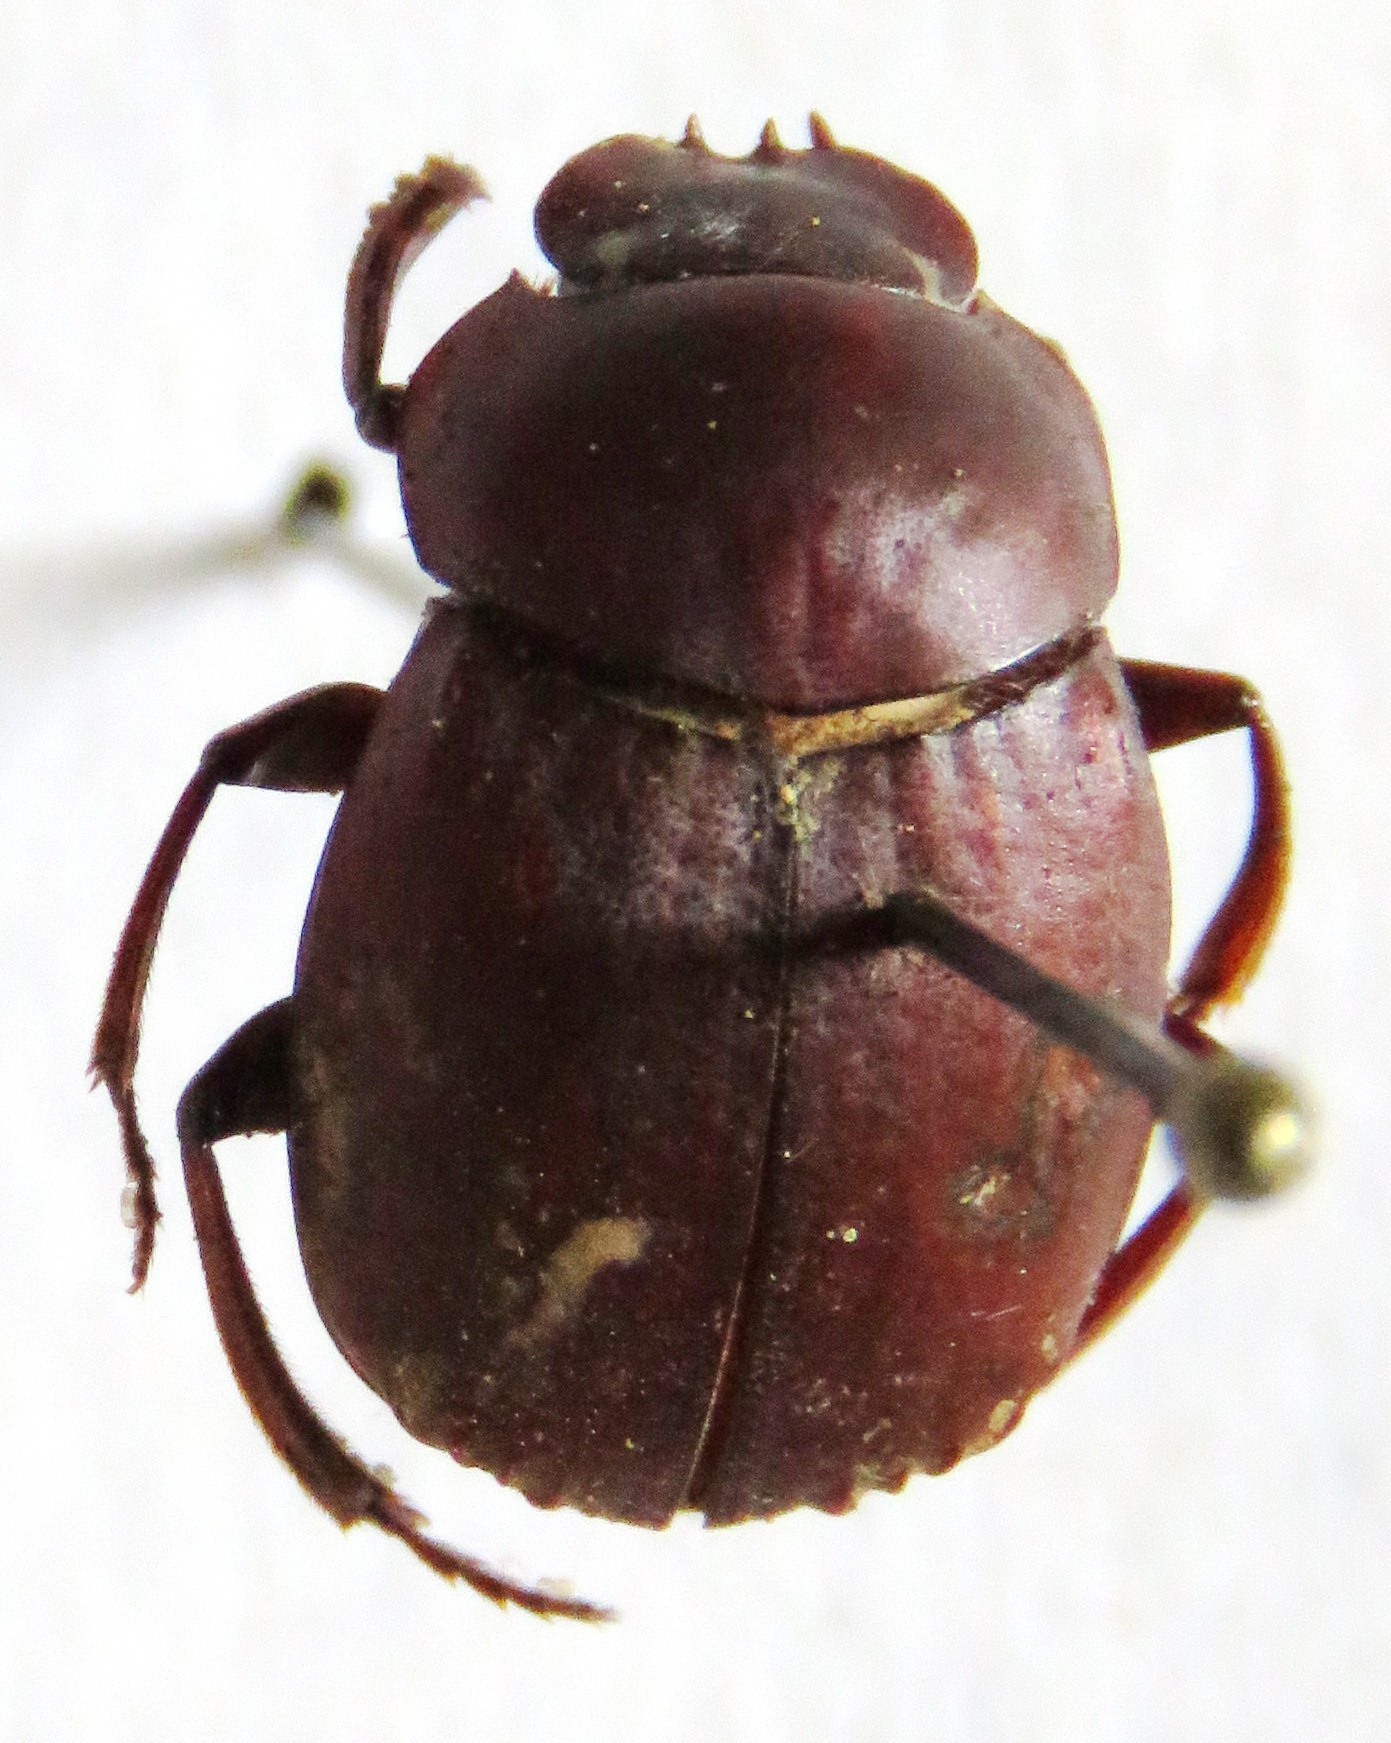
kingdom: Animalia
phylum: Arthropoda
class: Insecta
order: Coleoptera
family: Scarabaeidae
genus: Deltochilum
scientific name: Deltochilum pseudoparile
